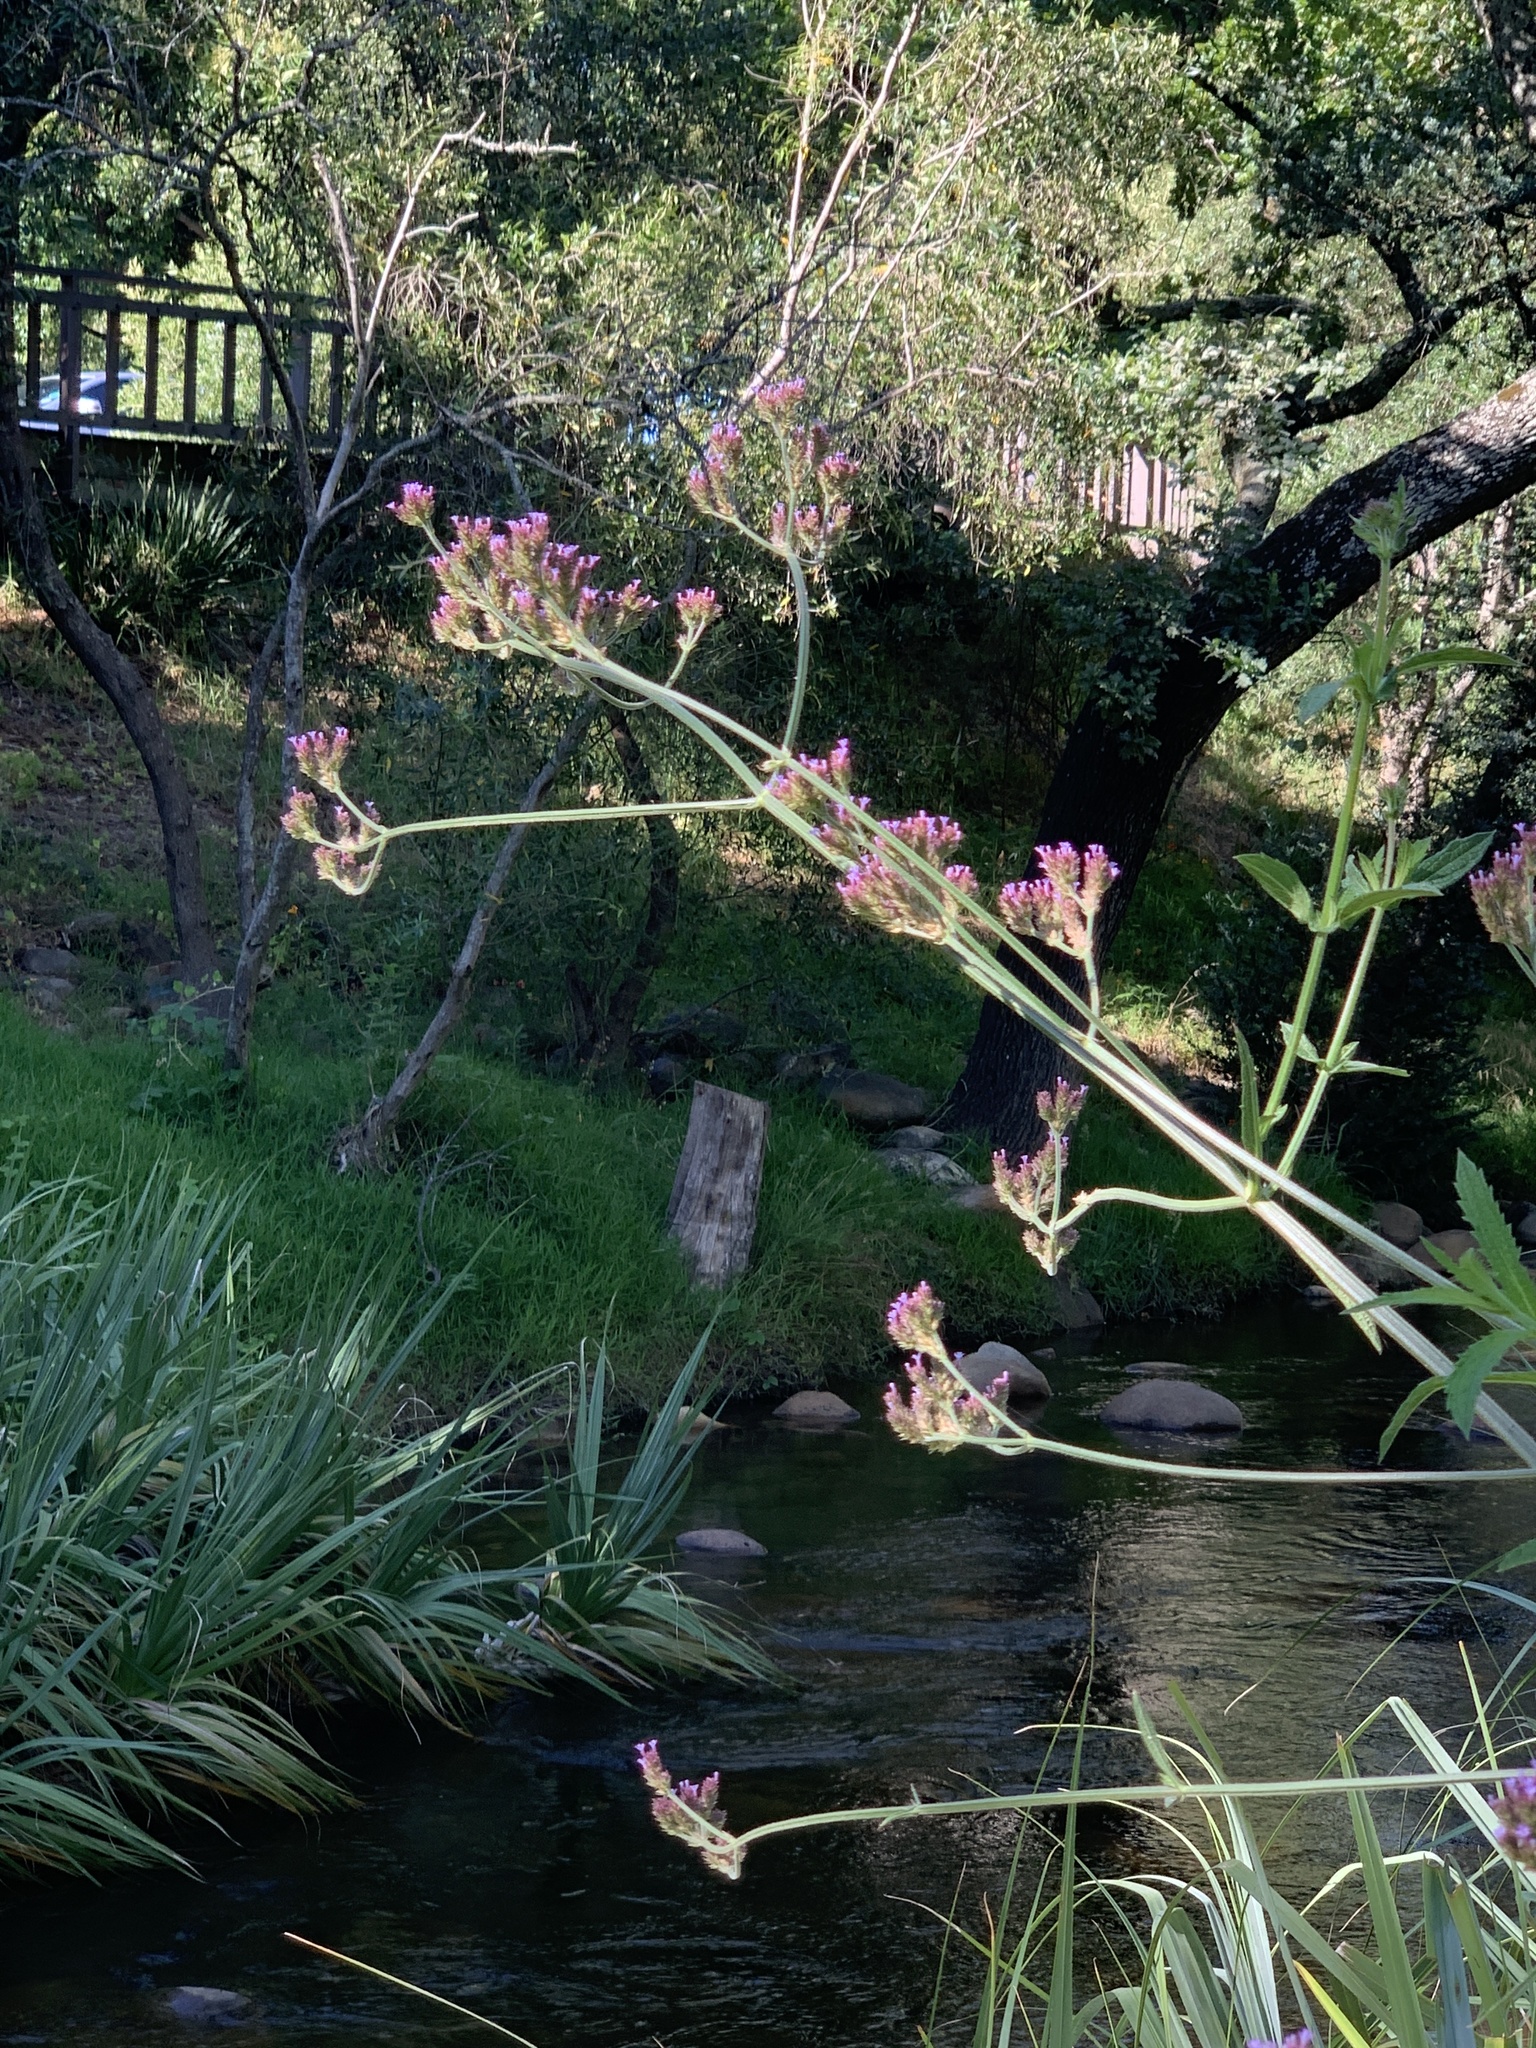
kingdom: Plantae
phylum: Tracheophyta
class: Magnoliopsida
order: Lamiales
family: Verbenaceae
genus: Verbena
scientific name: Verbena bonariensis
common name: Purpletop vervain
